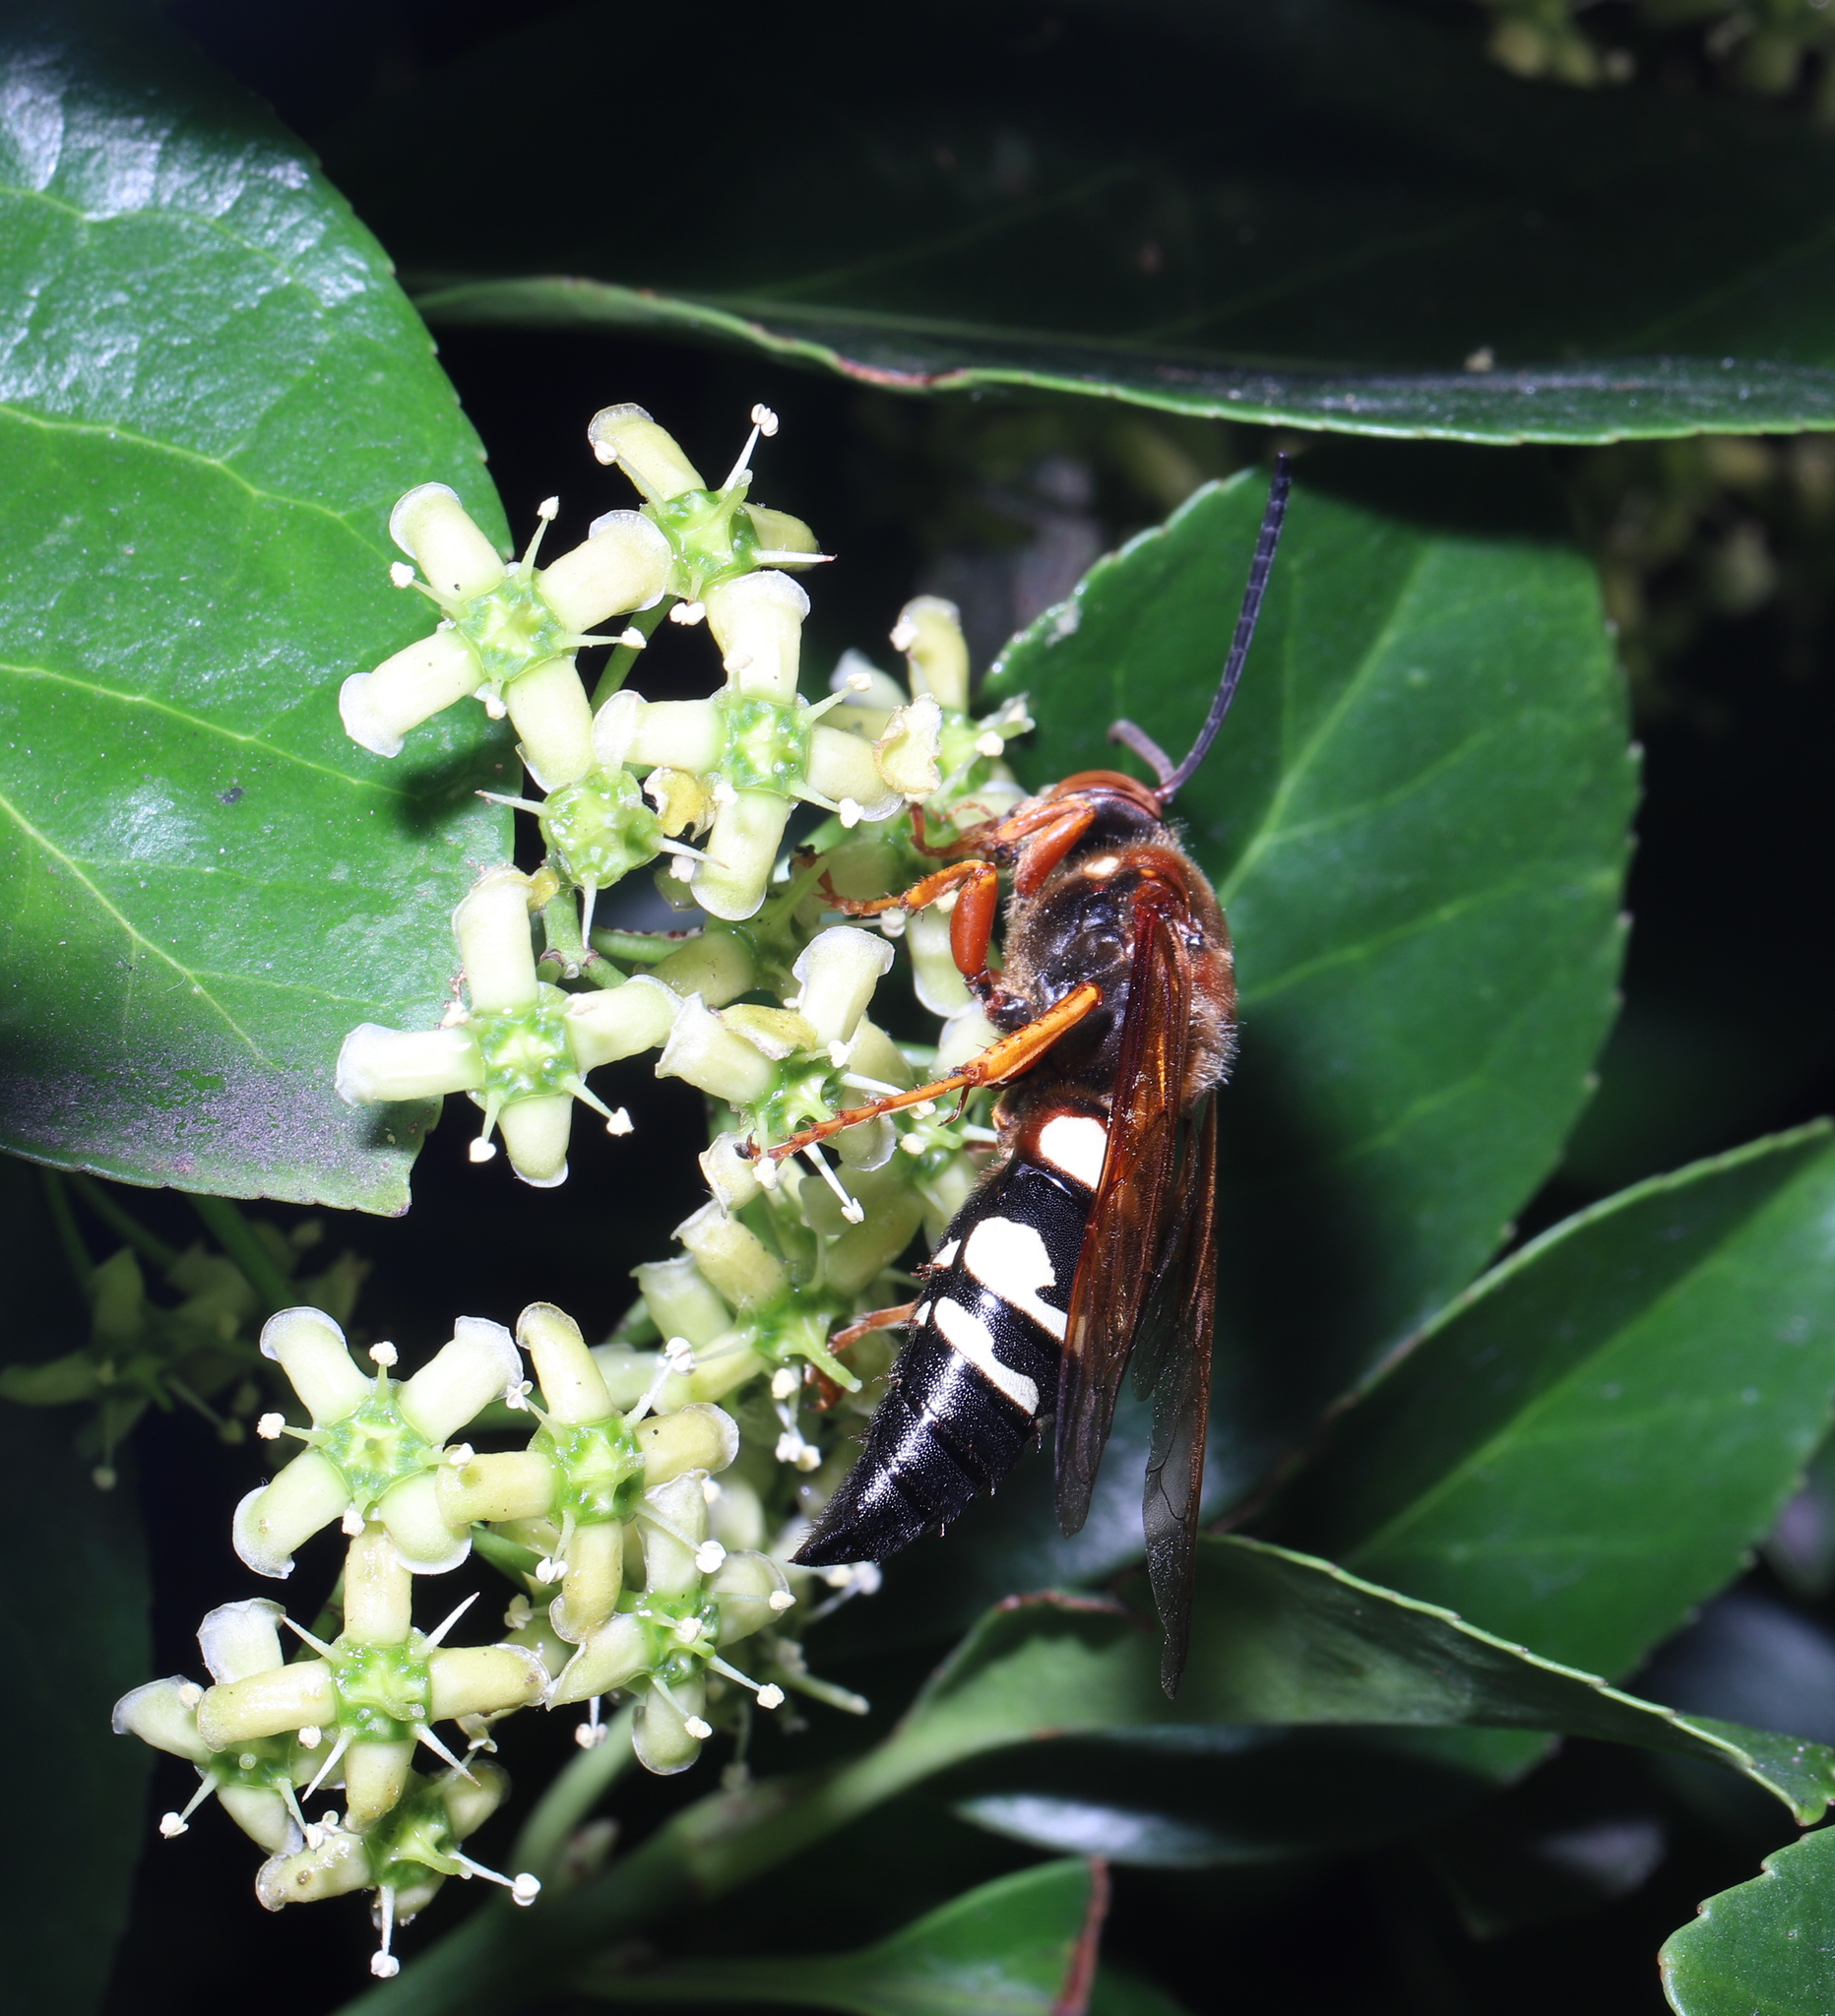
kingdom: Animalia
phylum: Arthropoda
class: Insecta
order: Hymenoptera
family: Crabronidae
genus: Sphecius
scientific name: Sphecius speciosus
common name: Cicada killer
